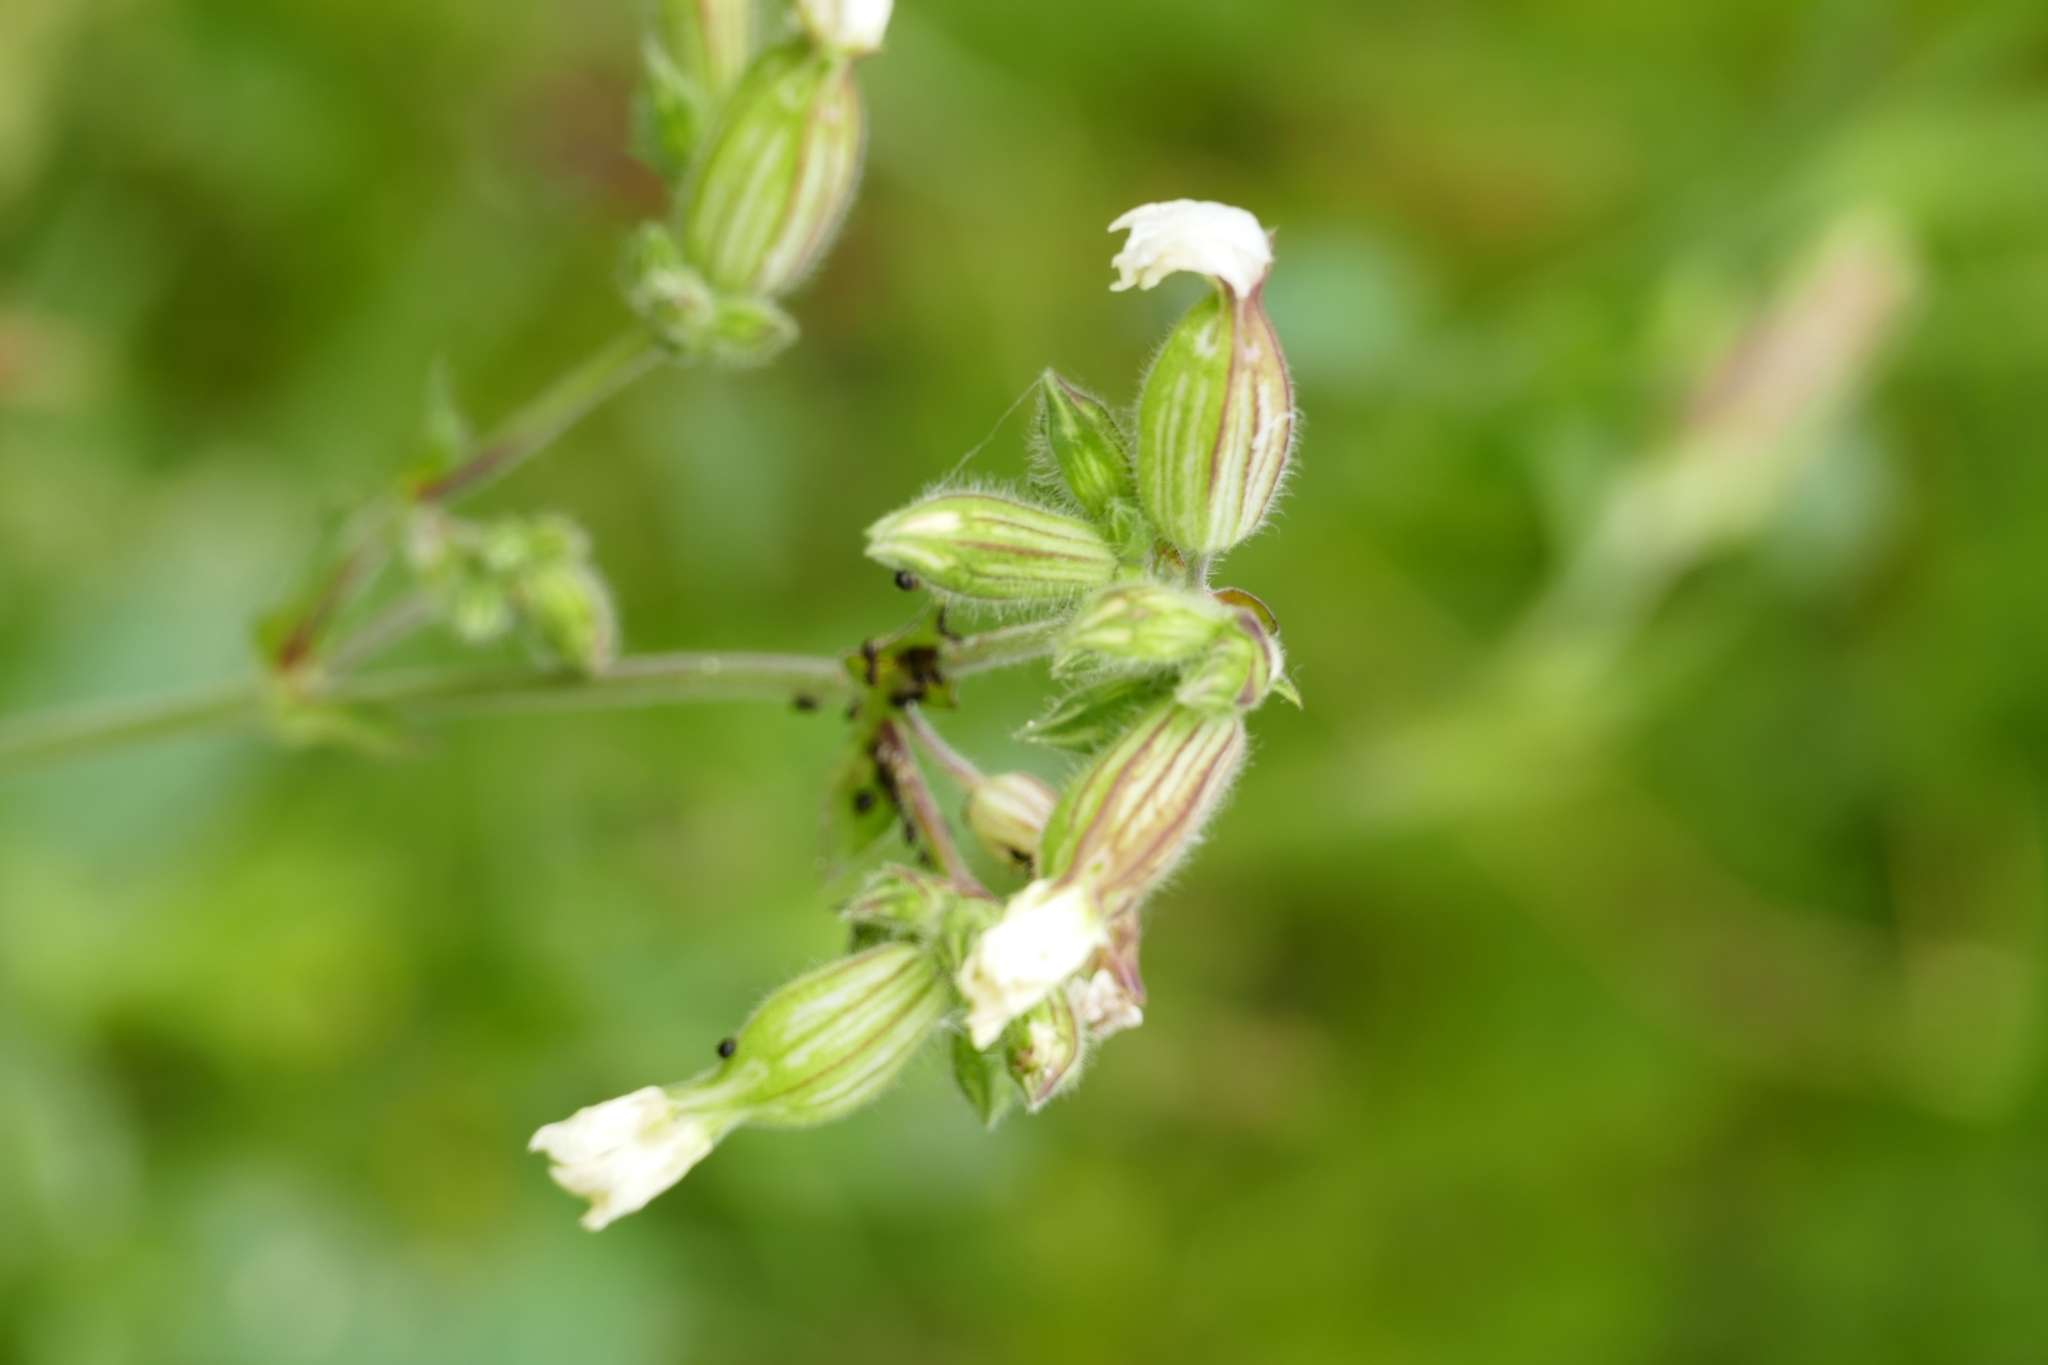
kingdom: Plantae
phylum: Tracheophyta
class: Magnoliopsida
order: Caryophyllales
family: Caryophyllaceae
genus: Silene
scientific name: Silene latifolia
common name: White campion
